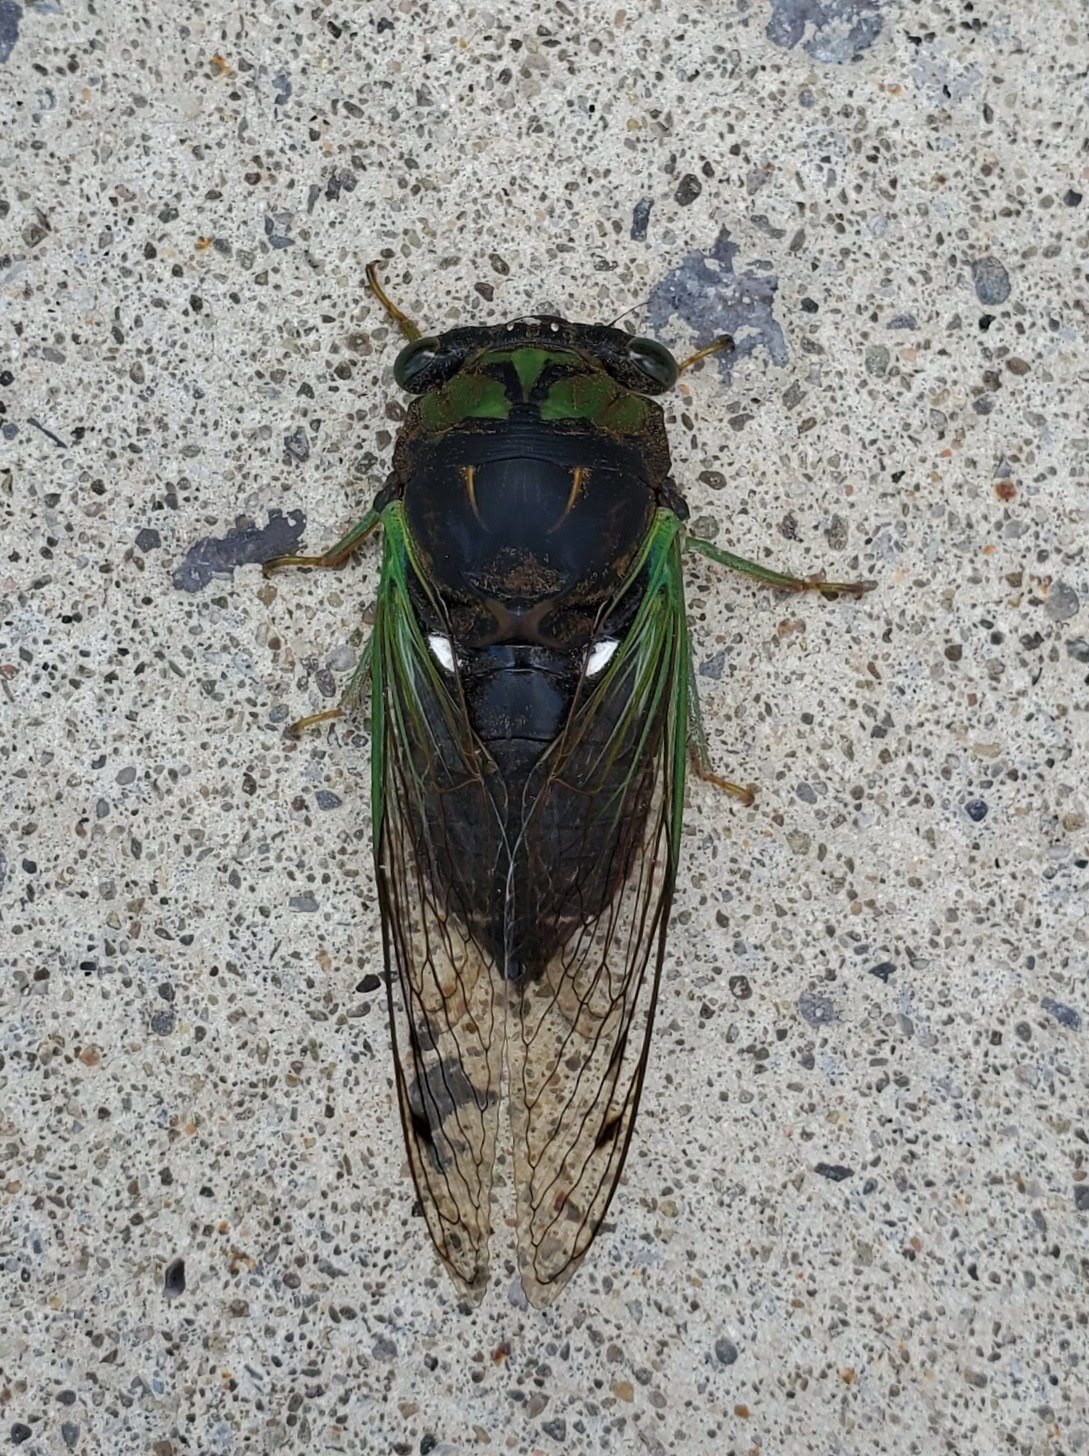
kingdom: Animalia
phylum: Arthropoda
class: Insecta
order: Hemiptera
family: Cicadidae
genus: Neotibicen
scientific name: Neotibicen tibicen
